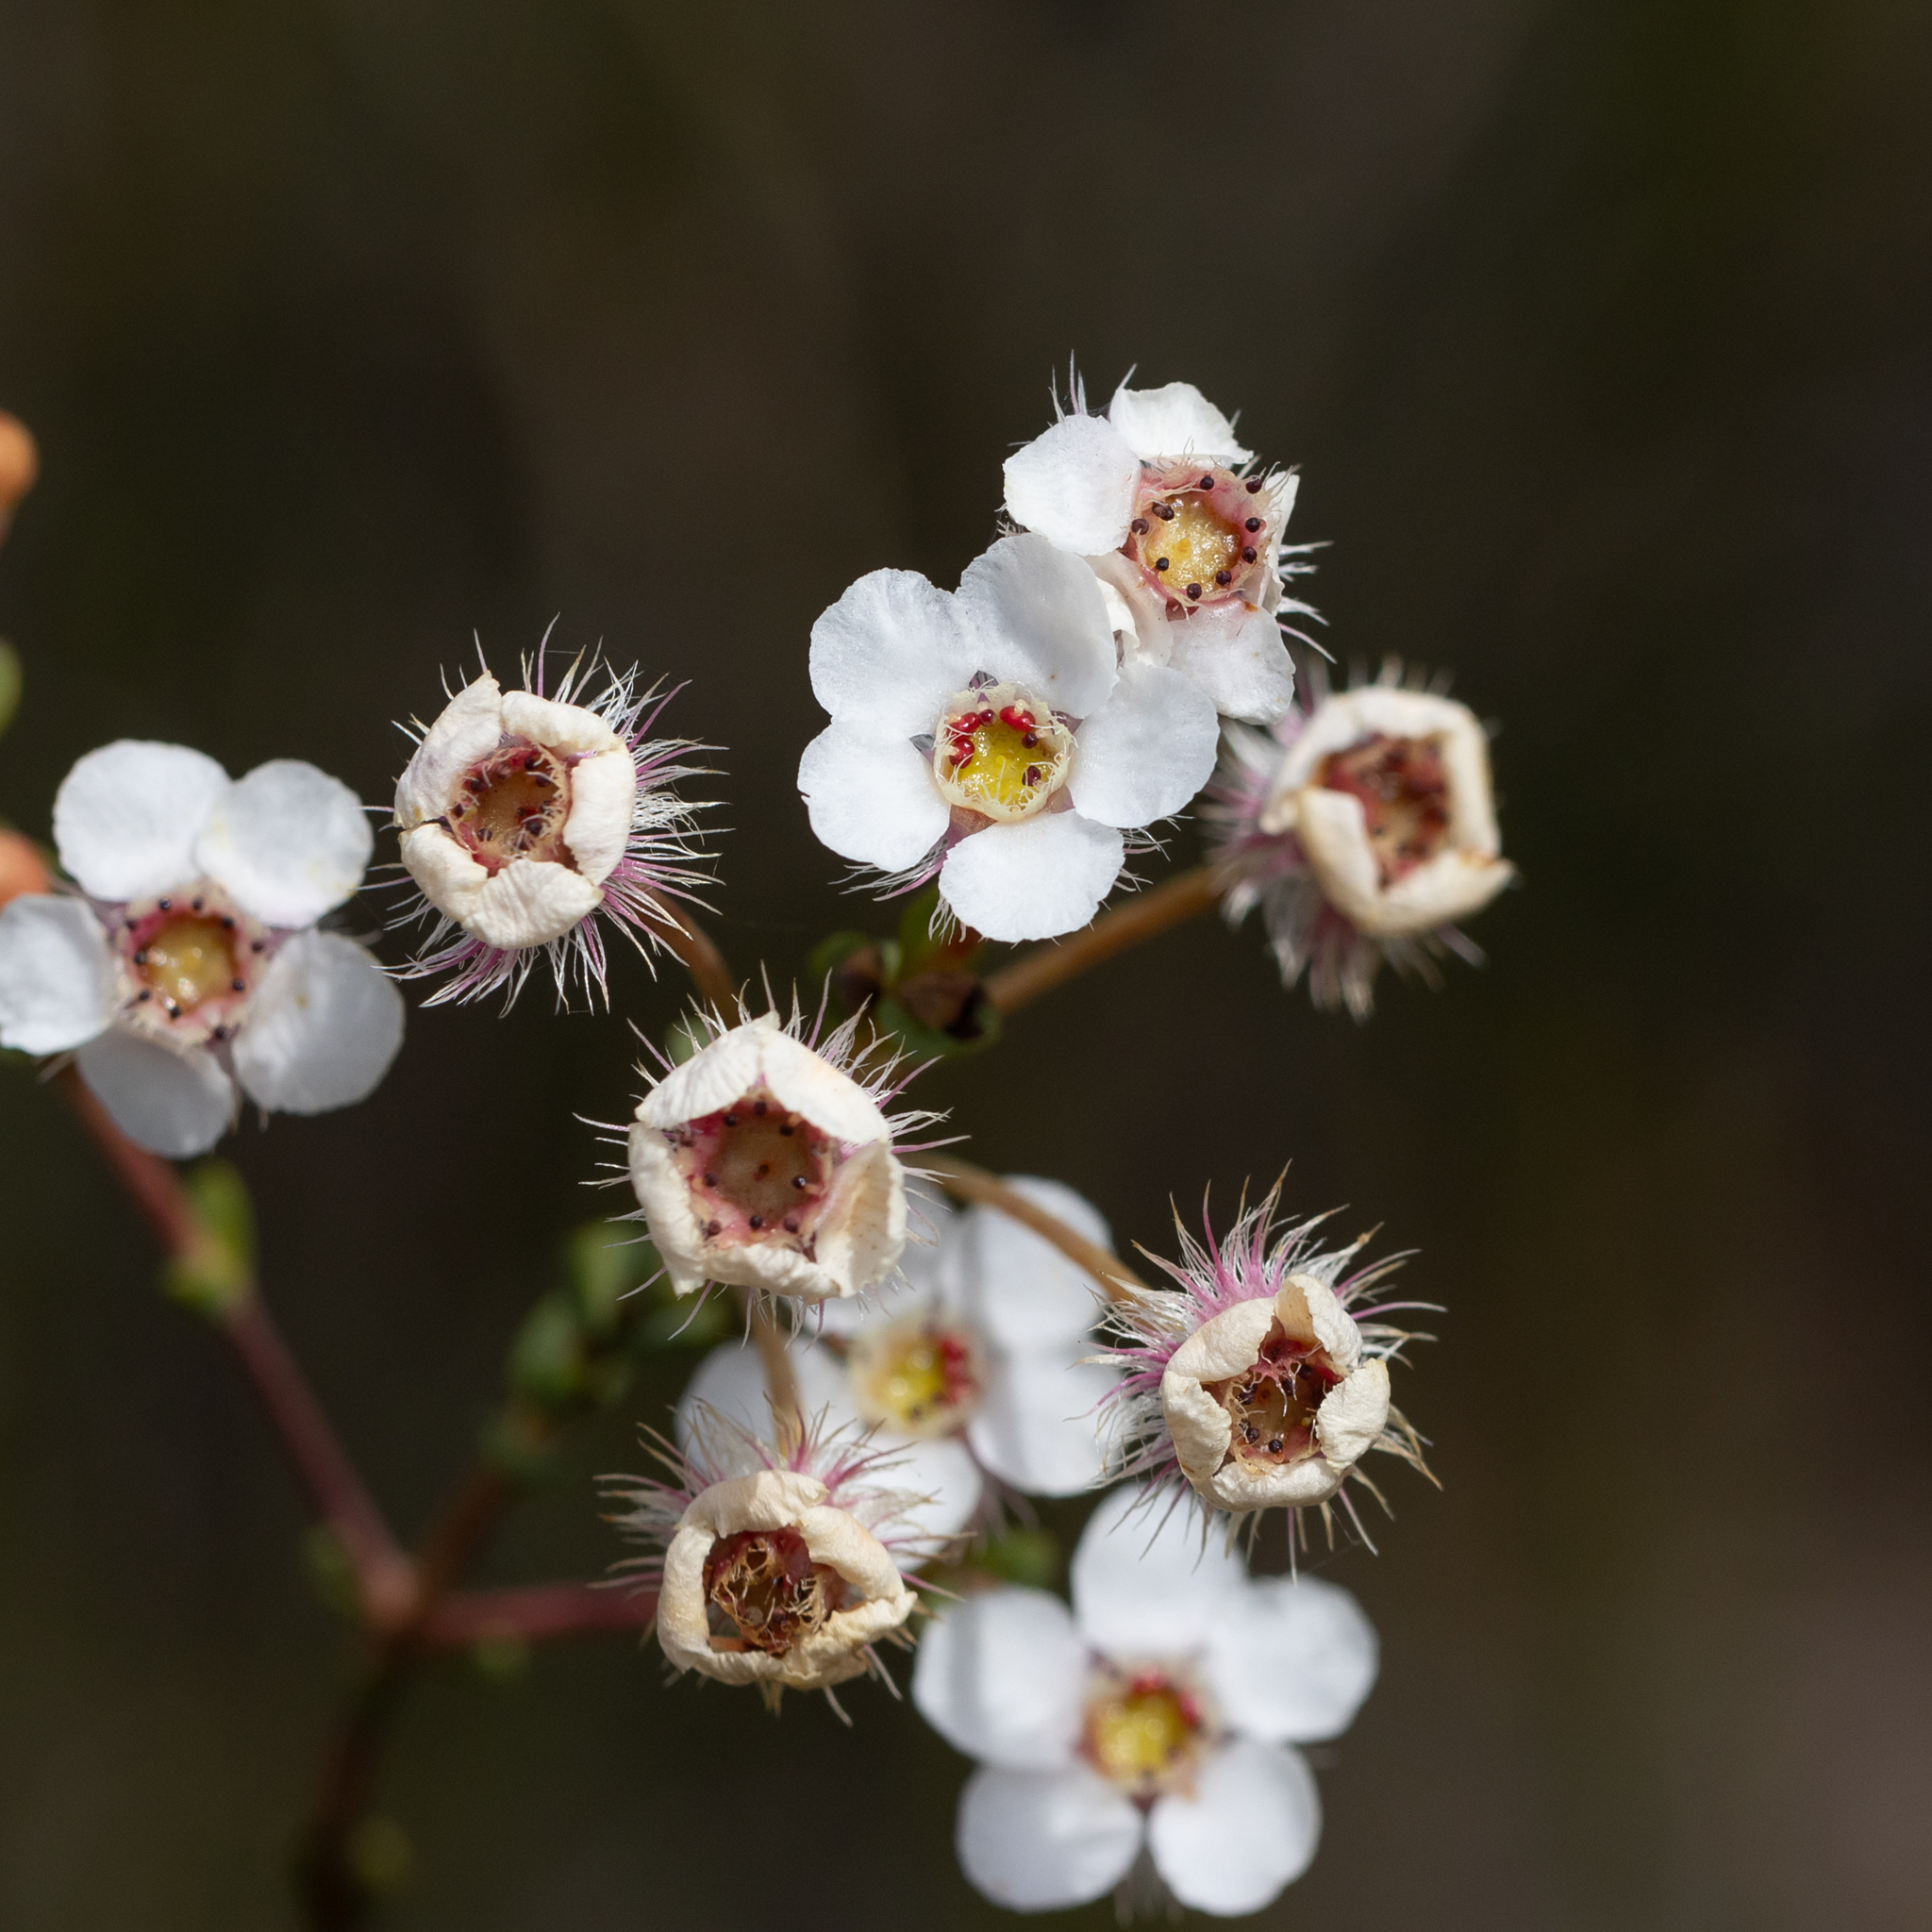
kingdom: Plantae
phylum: Tracheophyta
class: Magnoliopsida
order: Myrtales
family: Myrtaceae
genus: Verticordia
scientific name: Verticordia habrantha
